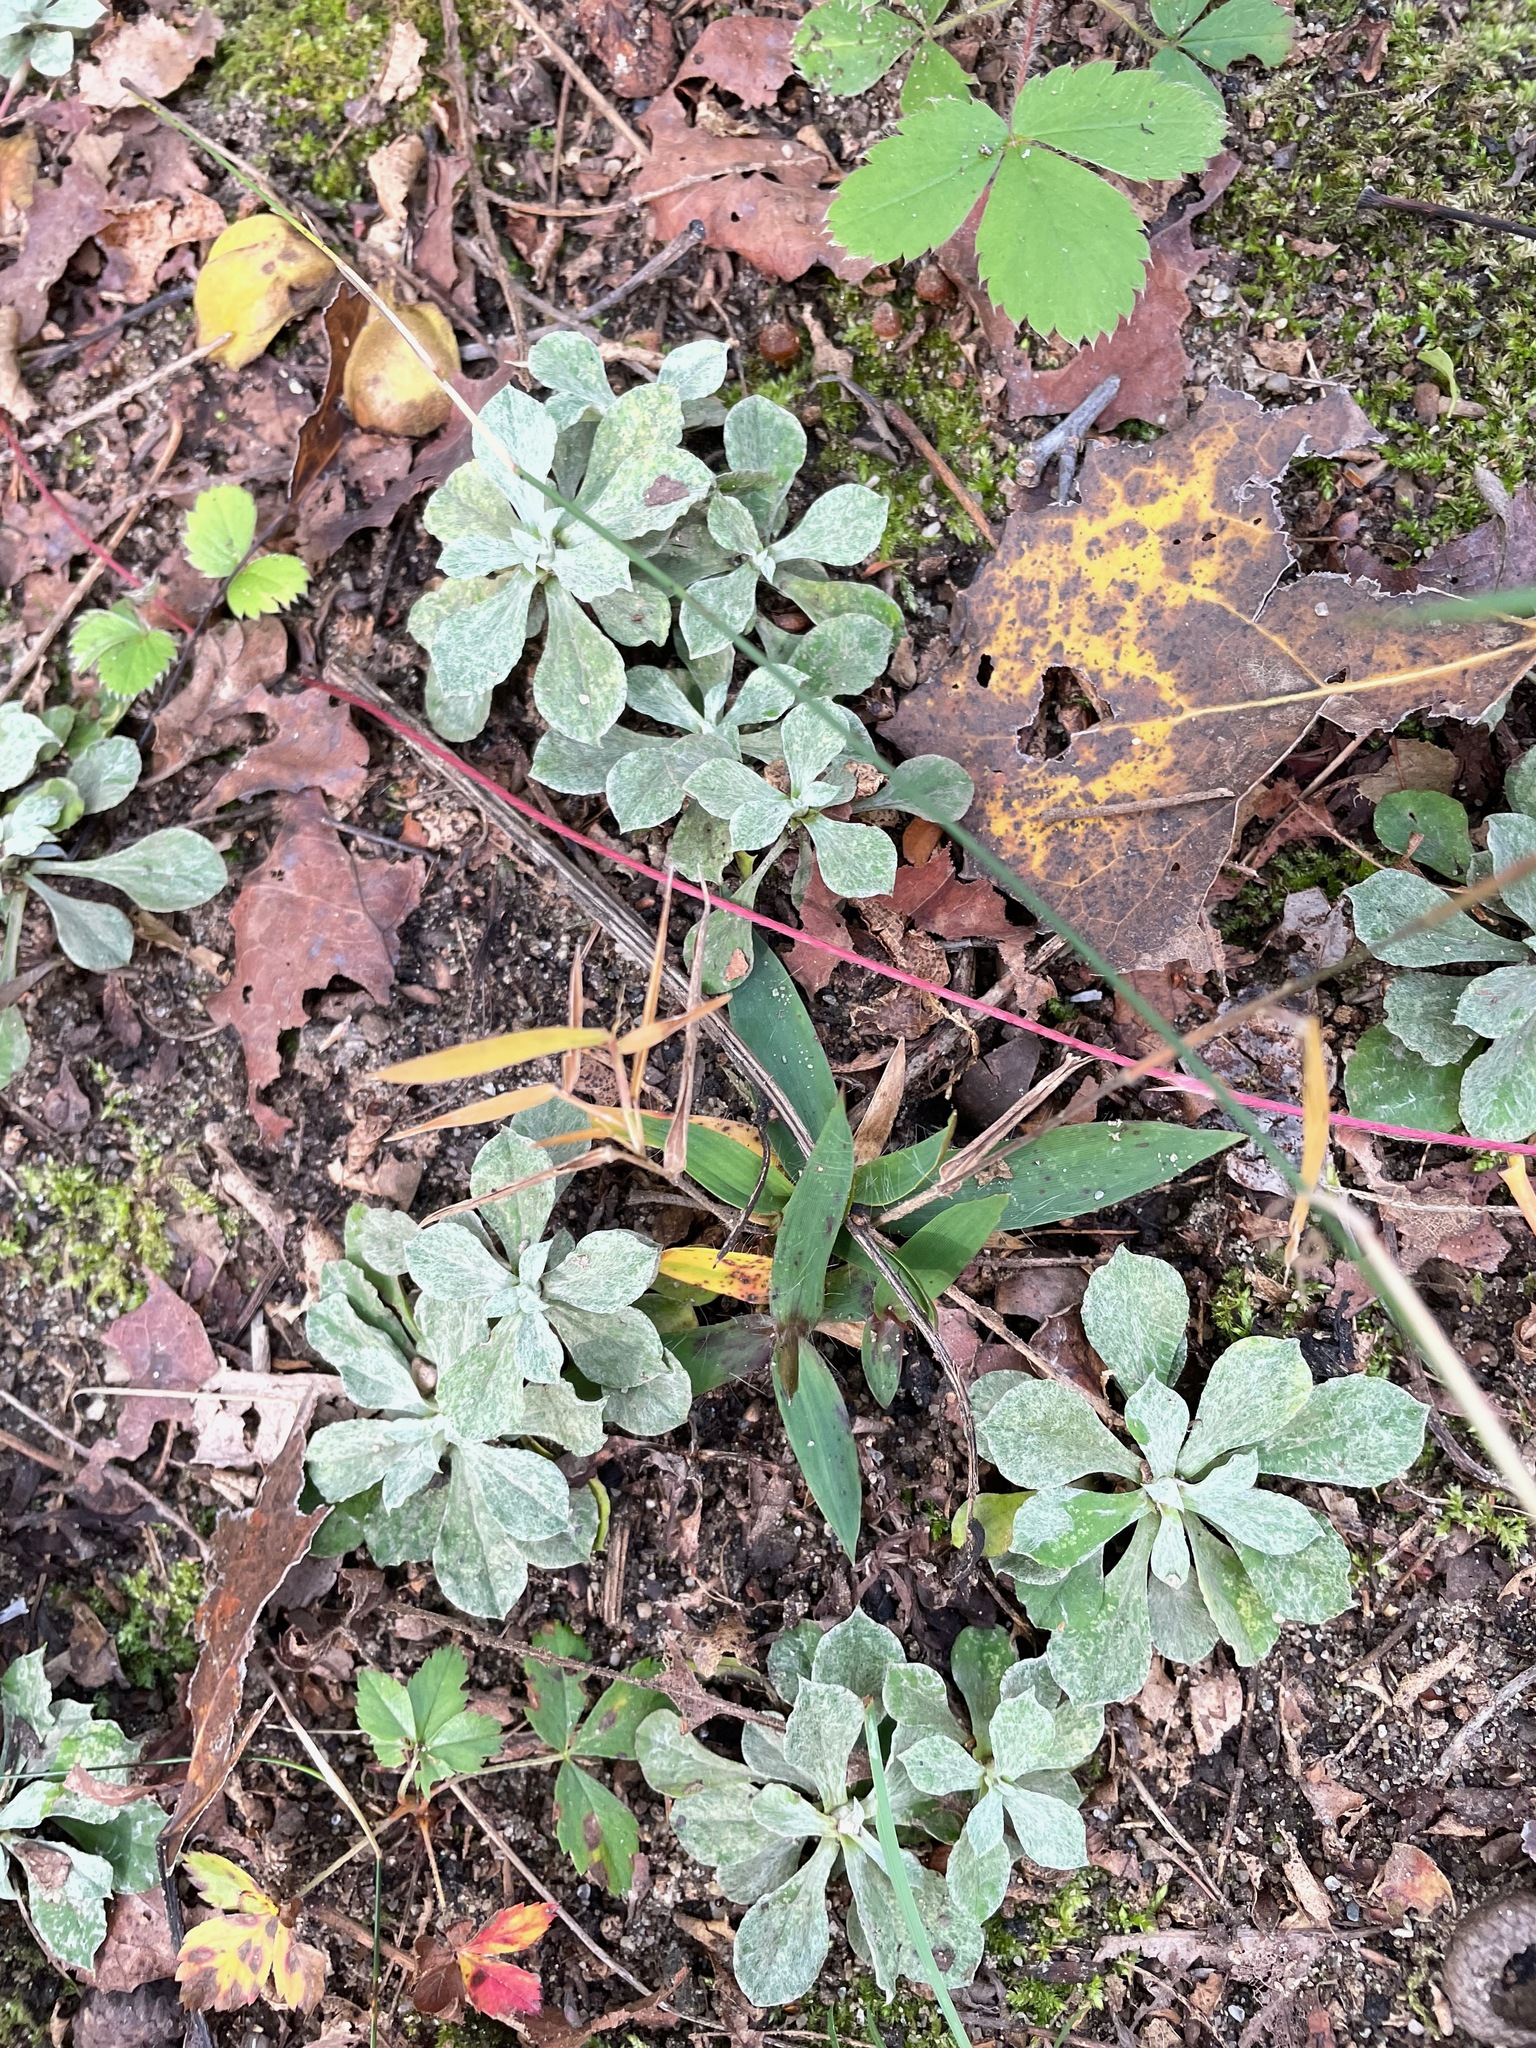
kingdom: Plantae
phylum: Tracheophyta
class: Magnoliopsida
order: Asterales
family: Asteraceae
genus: Antennaria
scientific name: Antennaria howellii
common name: Howell's pussytoes
